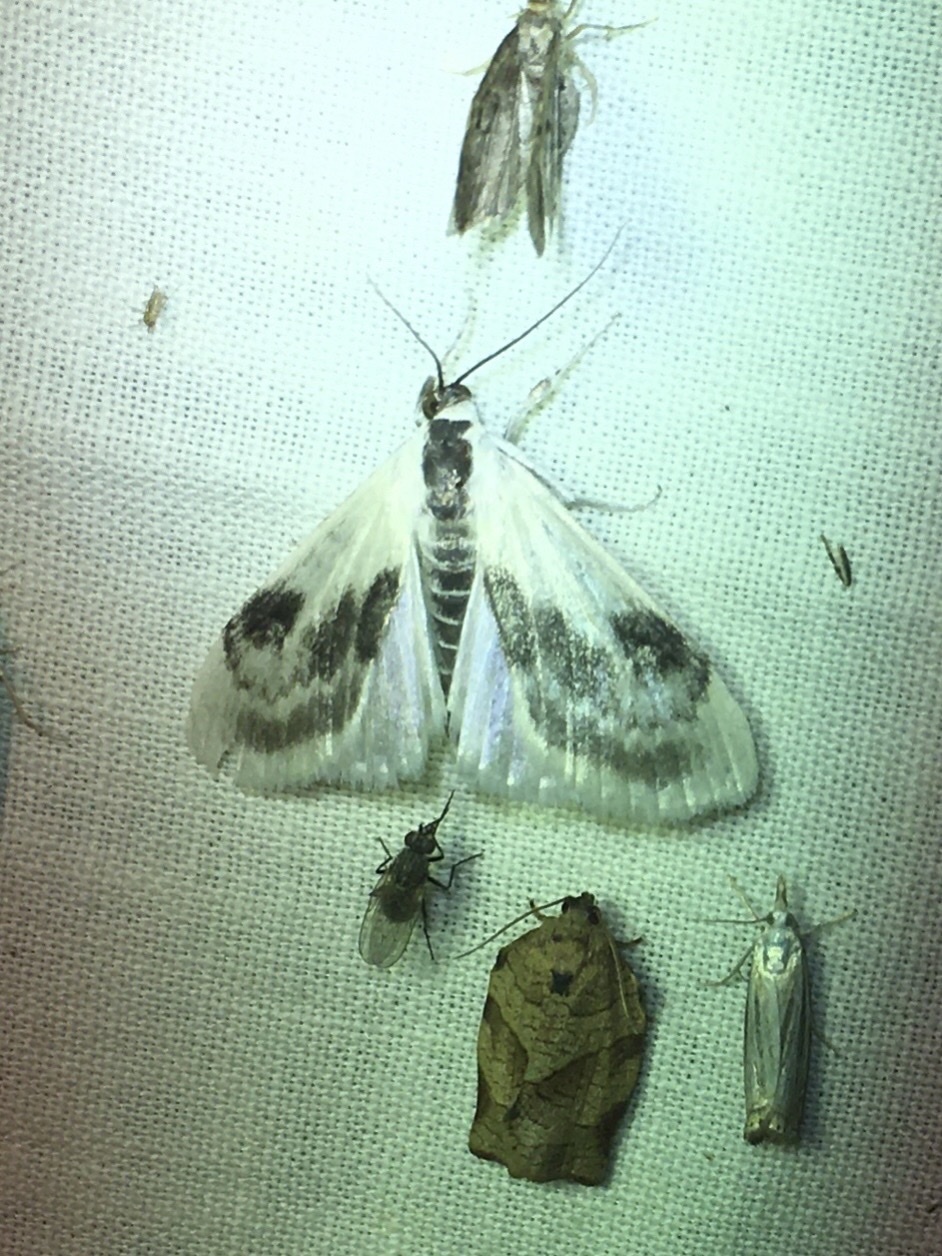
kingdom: Animalia
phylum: Arthropoda
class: Insecta
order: Lepidoptera
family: Crambidae
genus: Cliniodes
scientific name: Cliniodes
